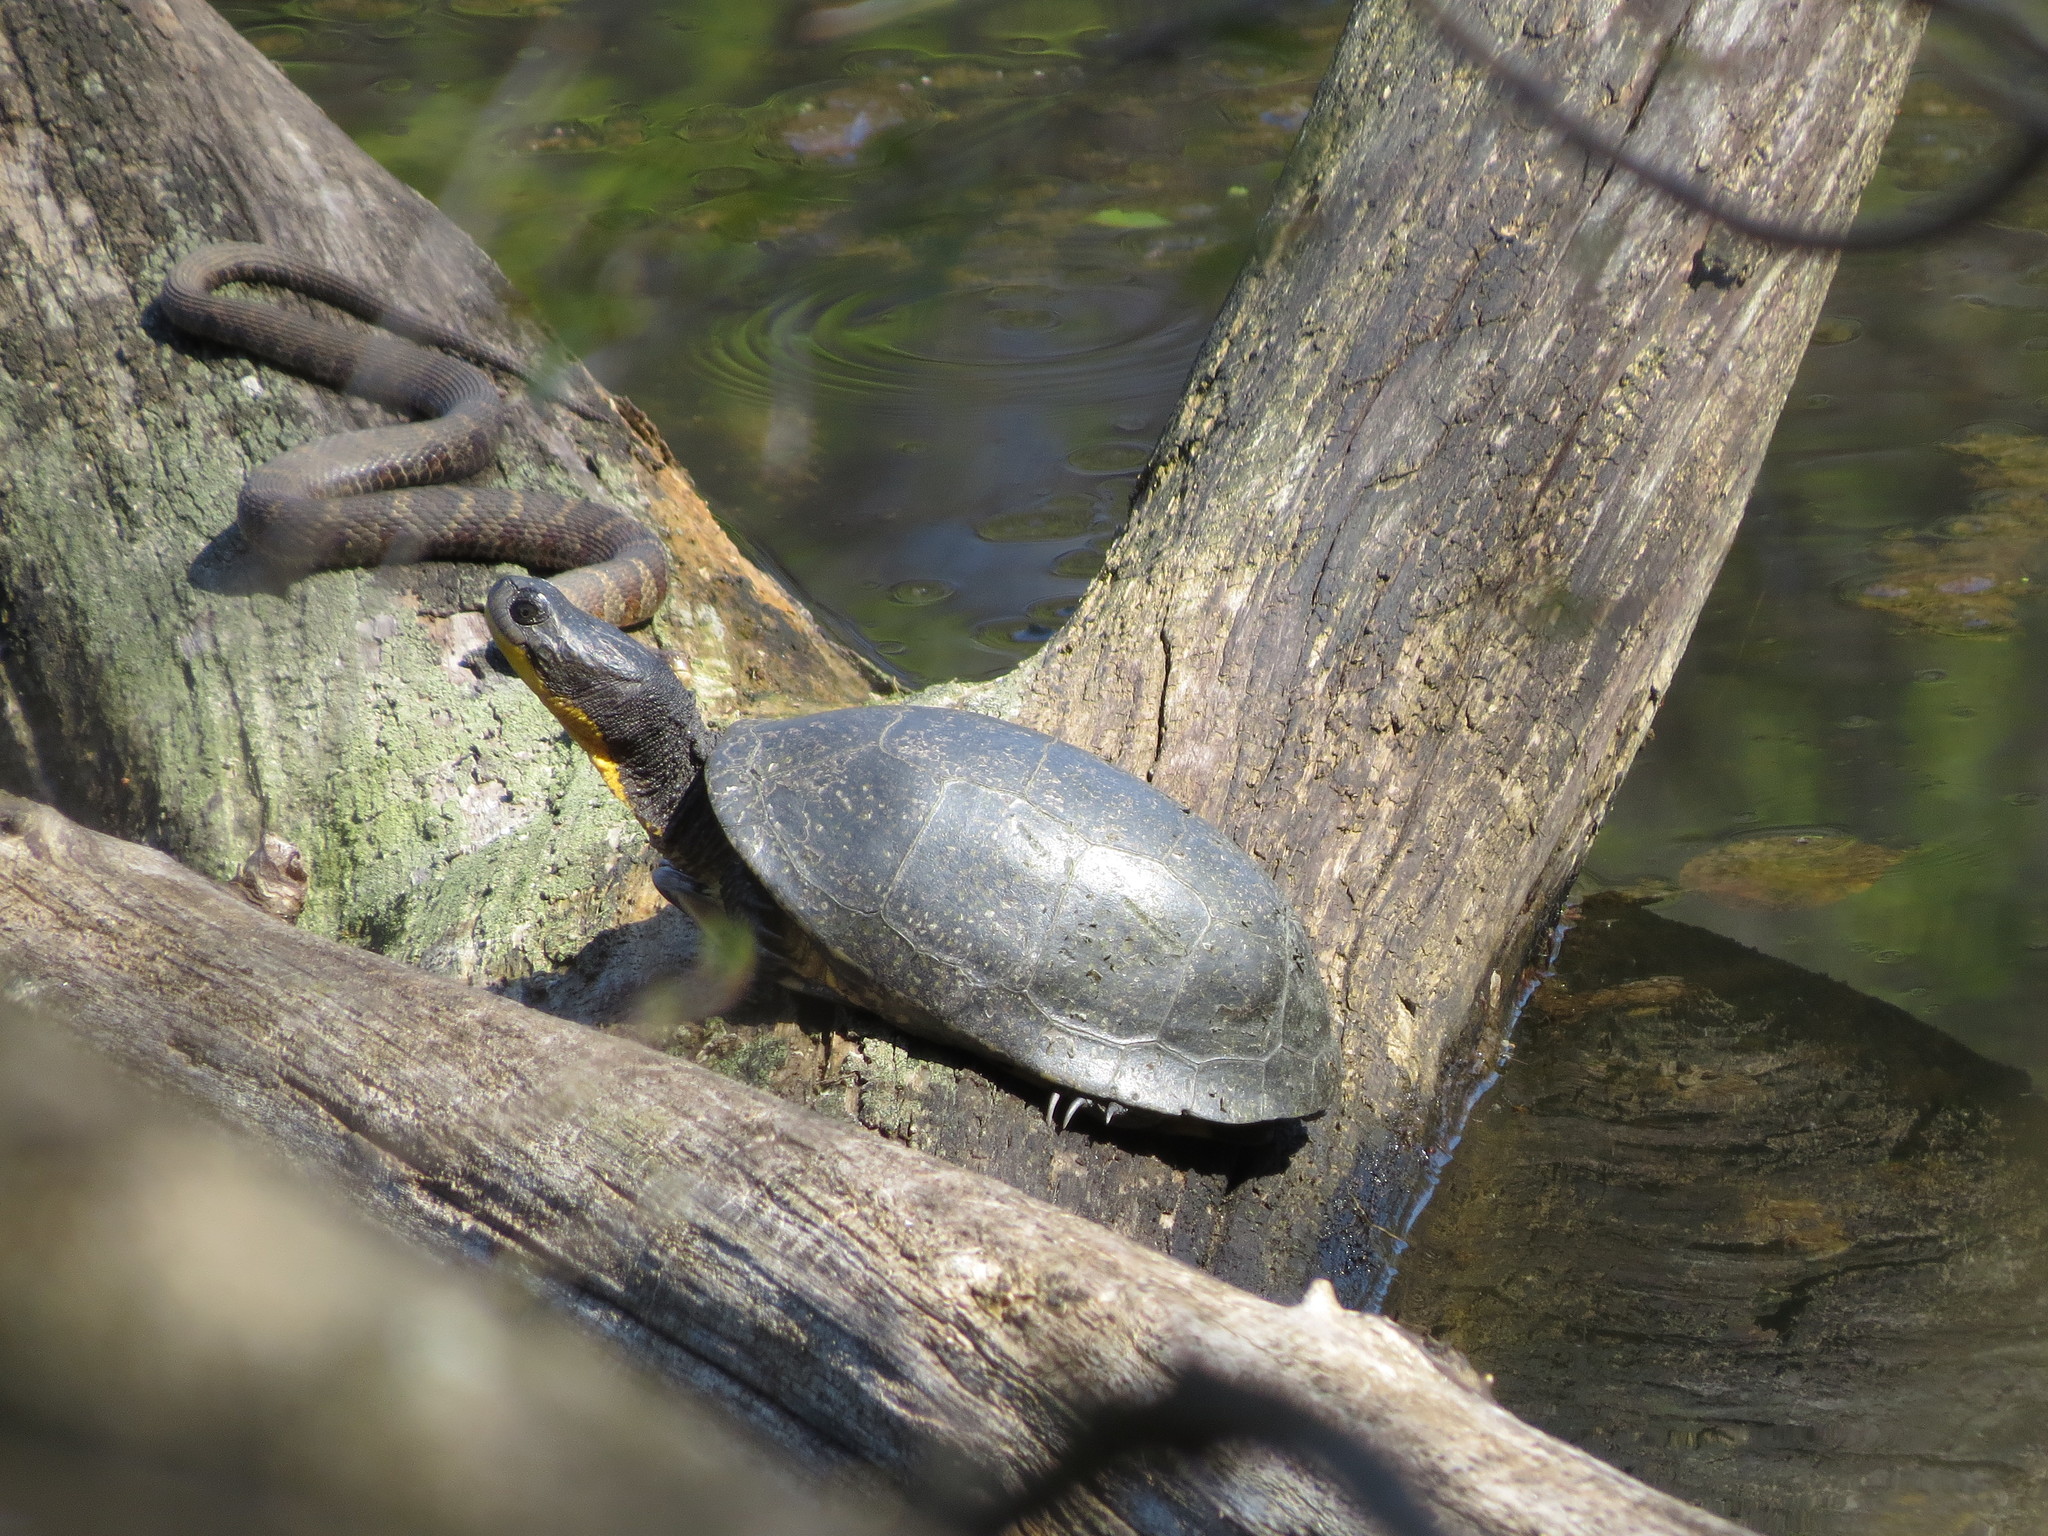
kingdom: Animalia
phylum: Chordata
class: Squamata
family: Colubridae
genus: Nerodia
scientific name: Nerodia sipedon
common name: Northern water snake
